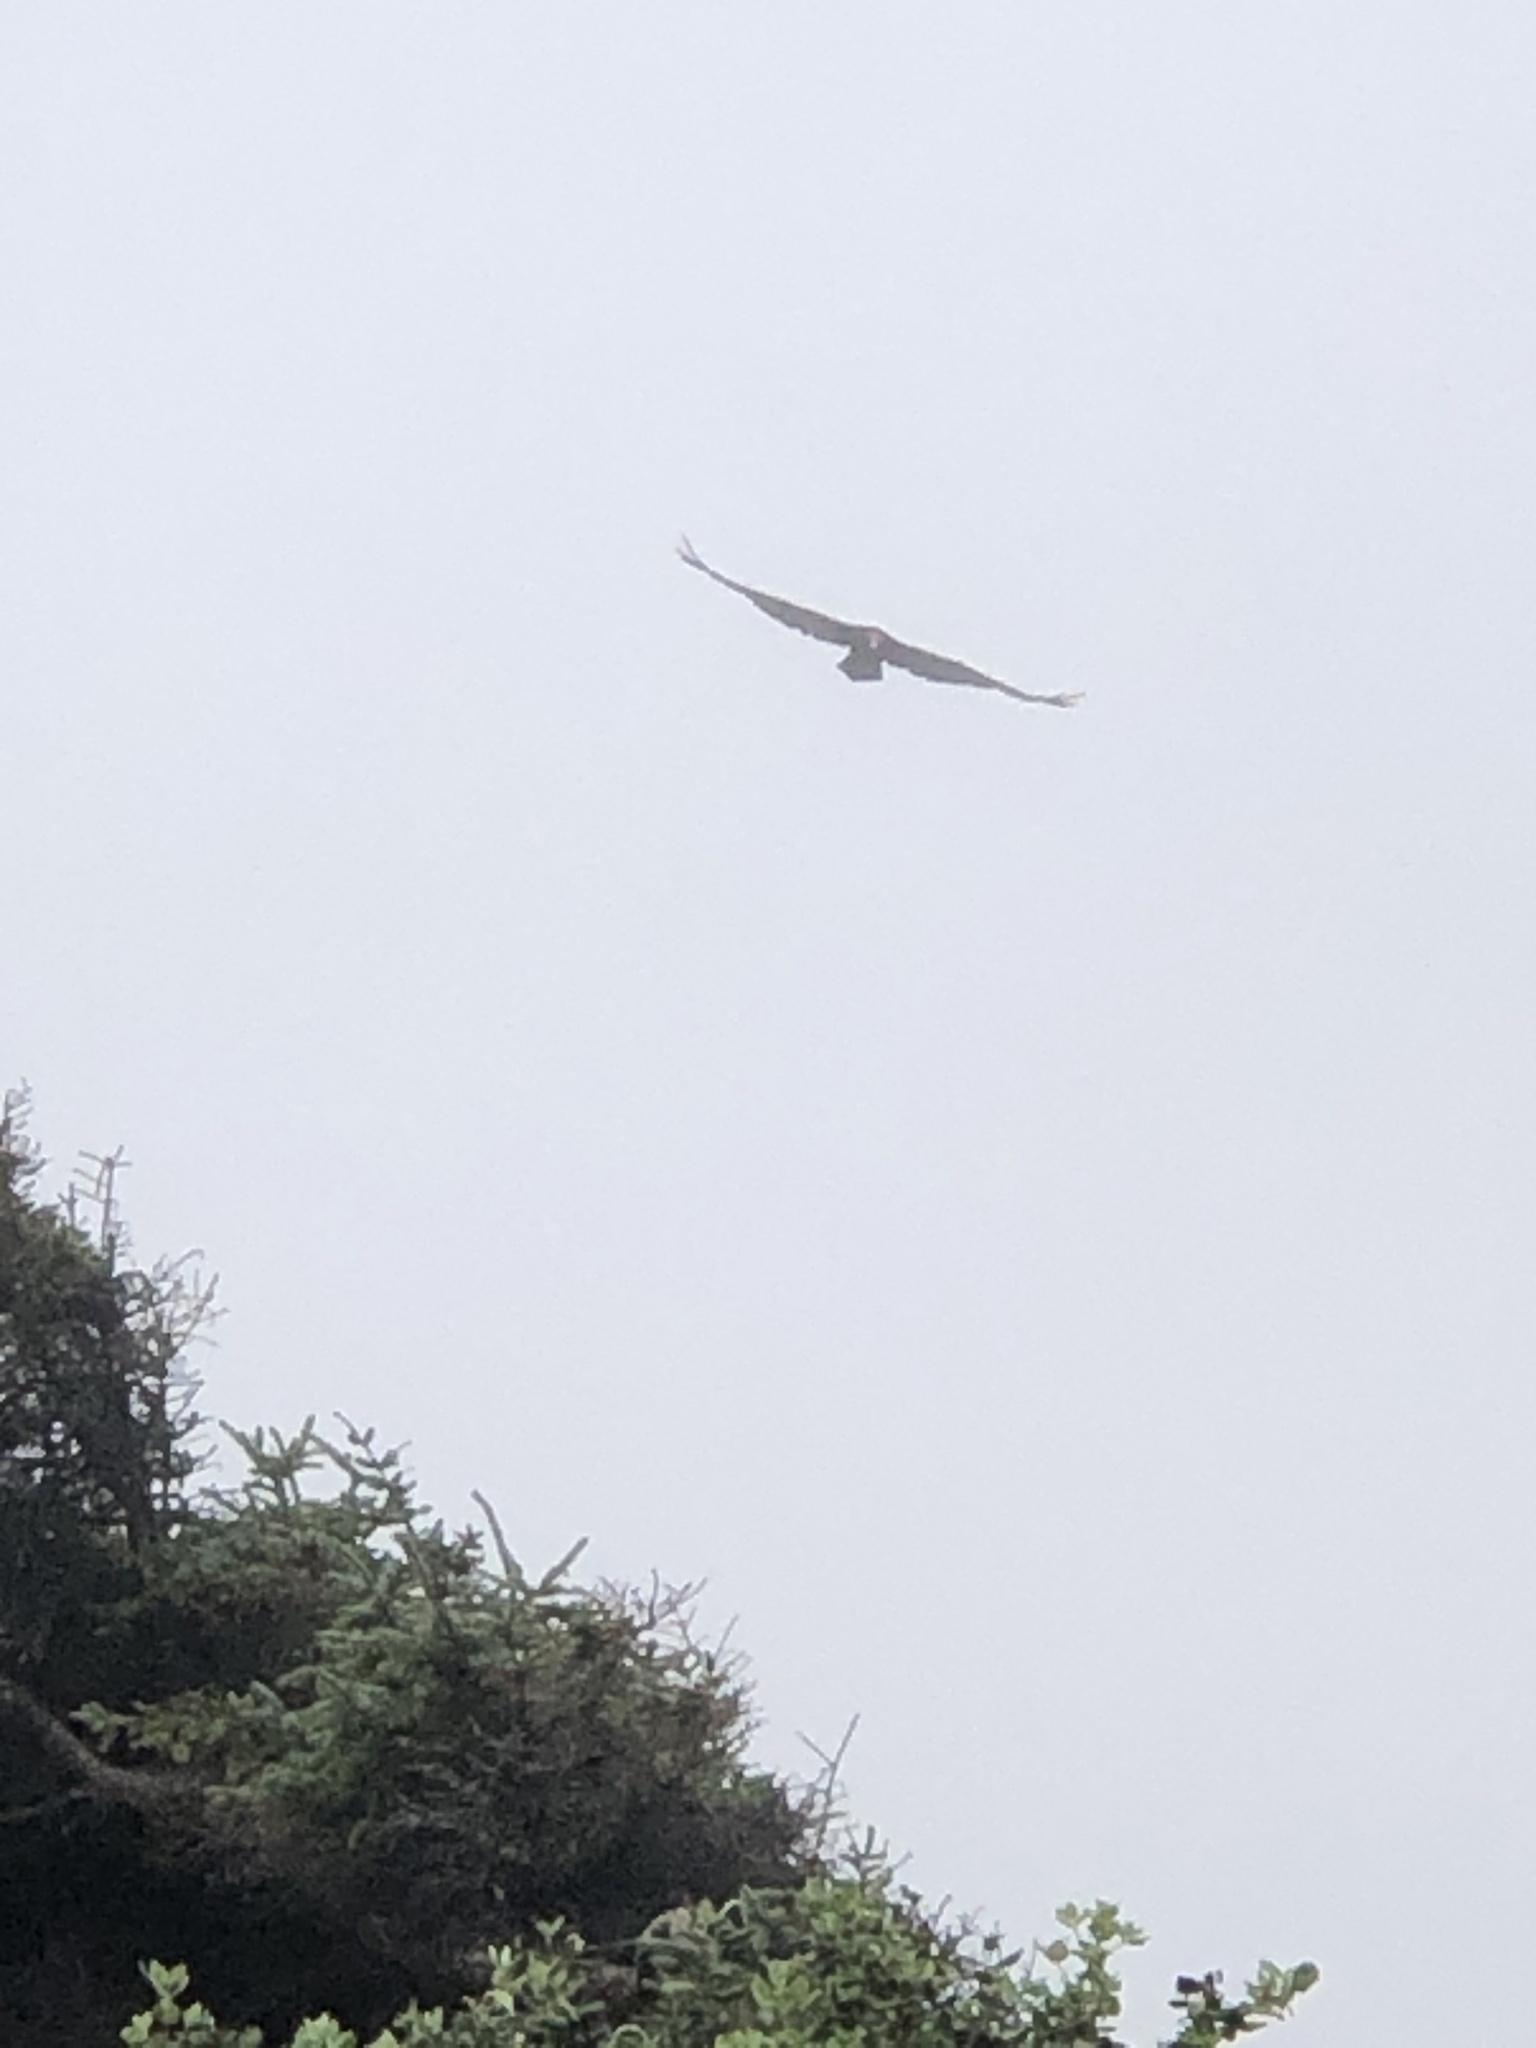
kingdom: Animalia
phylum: Chordata
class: Aves
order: Accipitriformes
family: Cathartidae
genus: Cathartes
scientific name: Cathartes aura
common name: Turkey vulture
